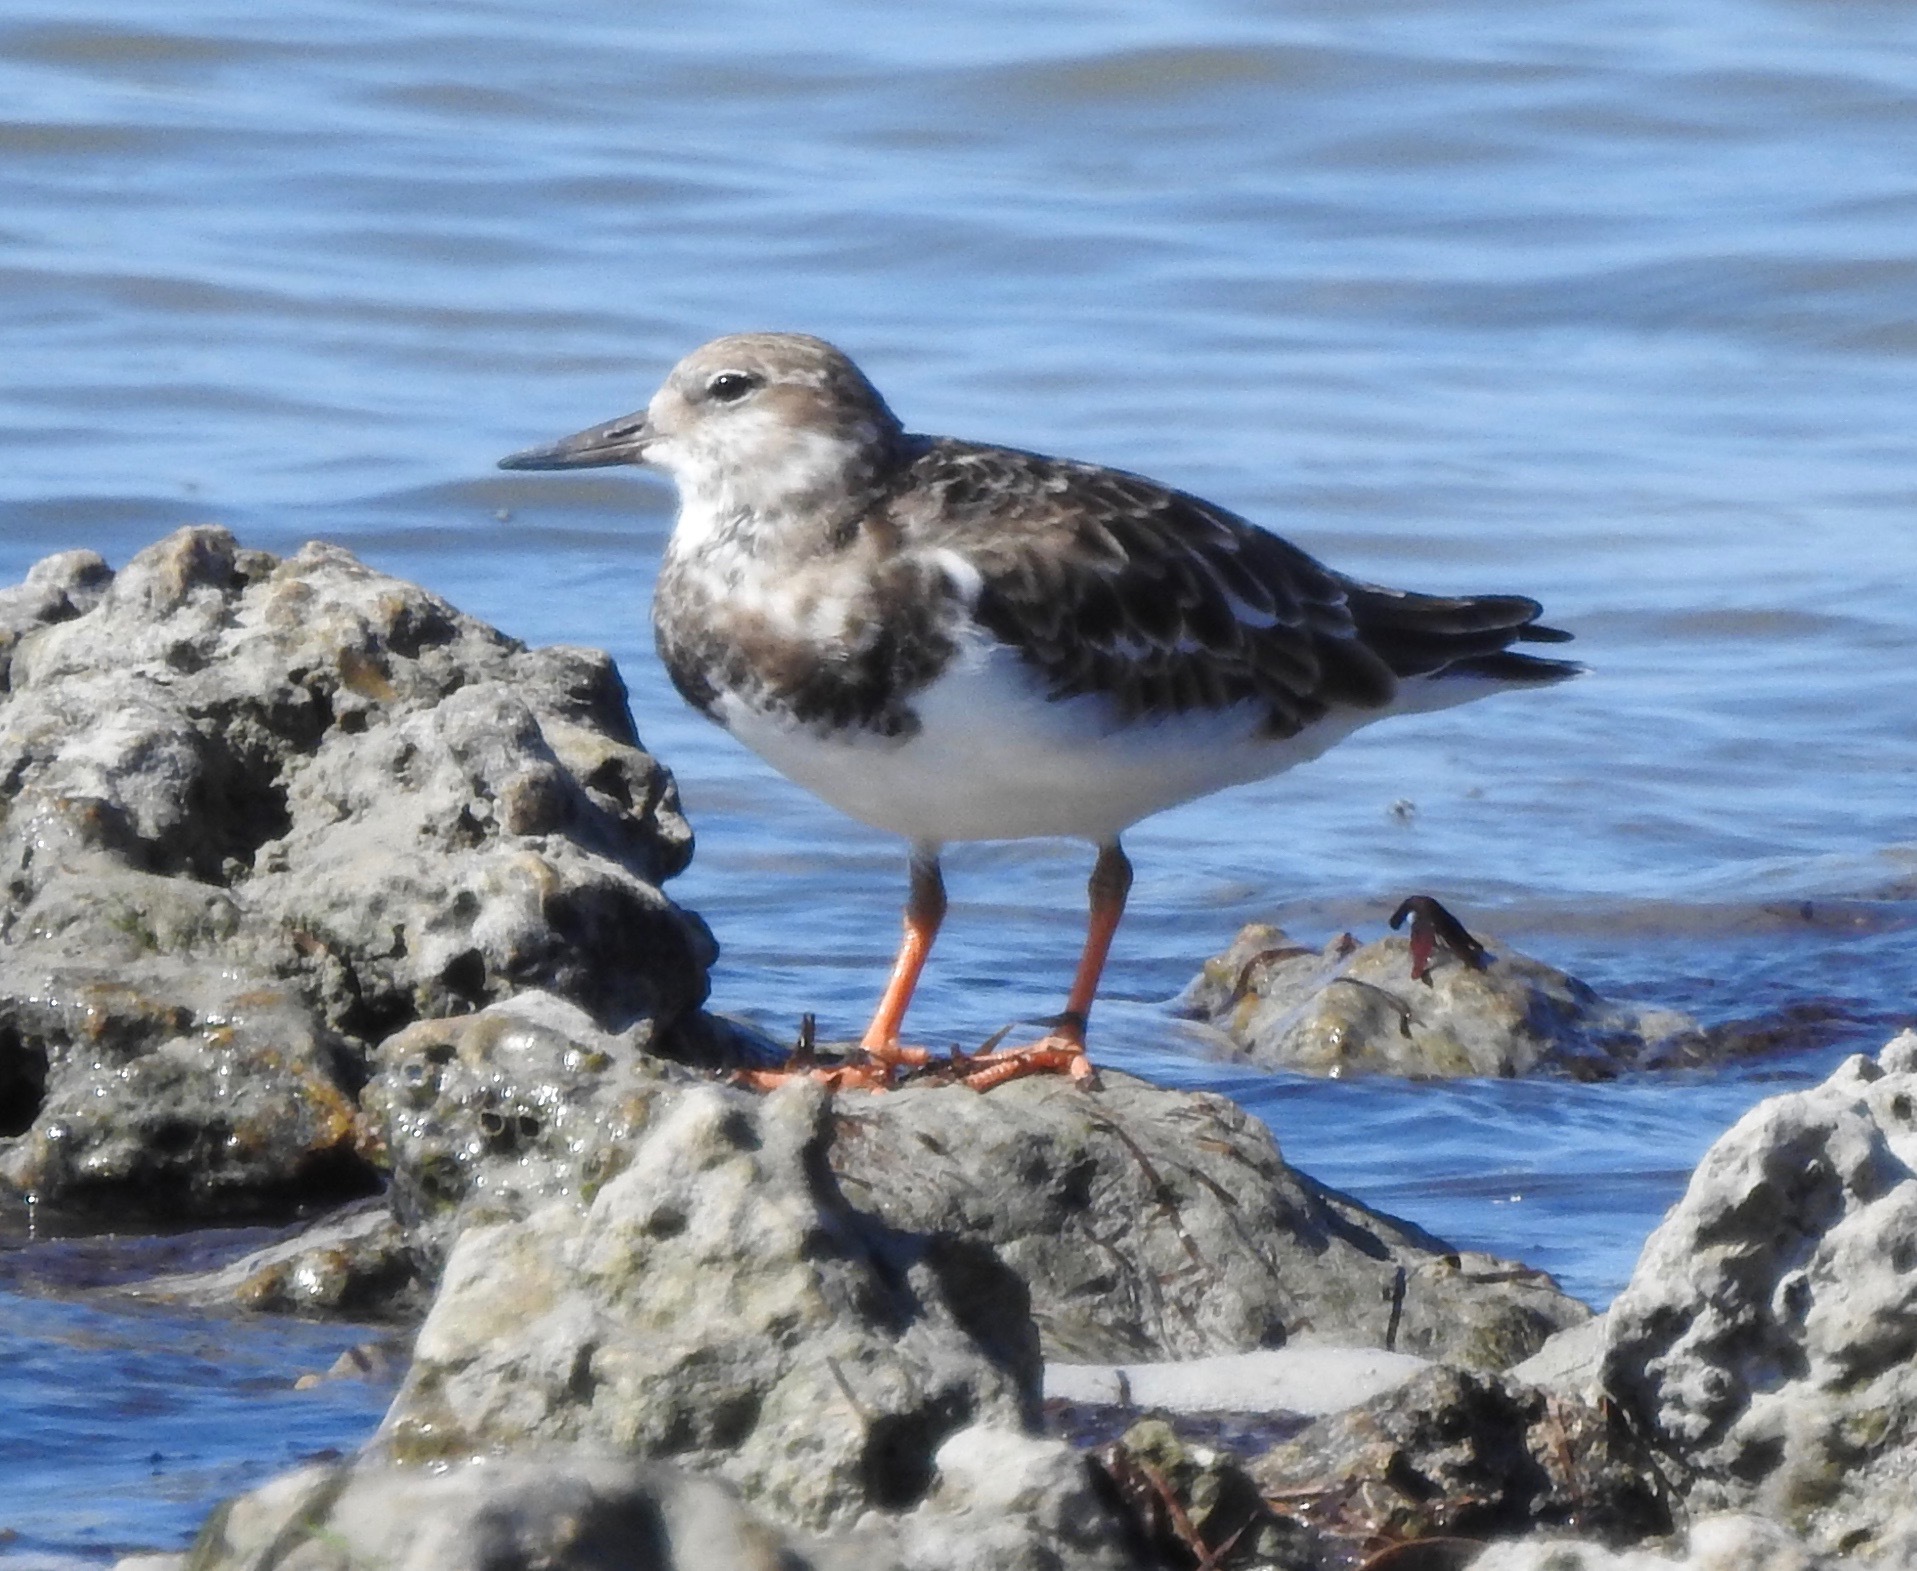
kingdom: Animalia
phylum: Chordata
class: Aves
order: Charadriiformes
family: Scolopacidae
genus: Arenaria
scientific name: Arenaria interpres
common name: Ruddy turnstone
